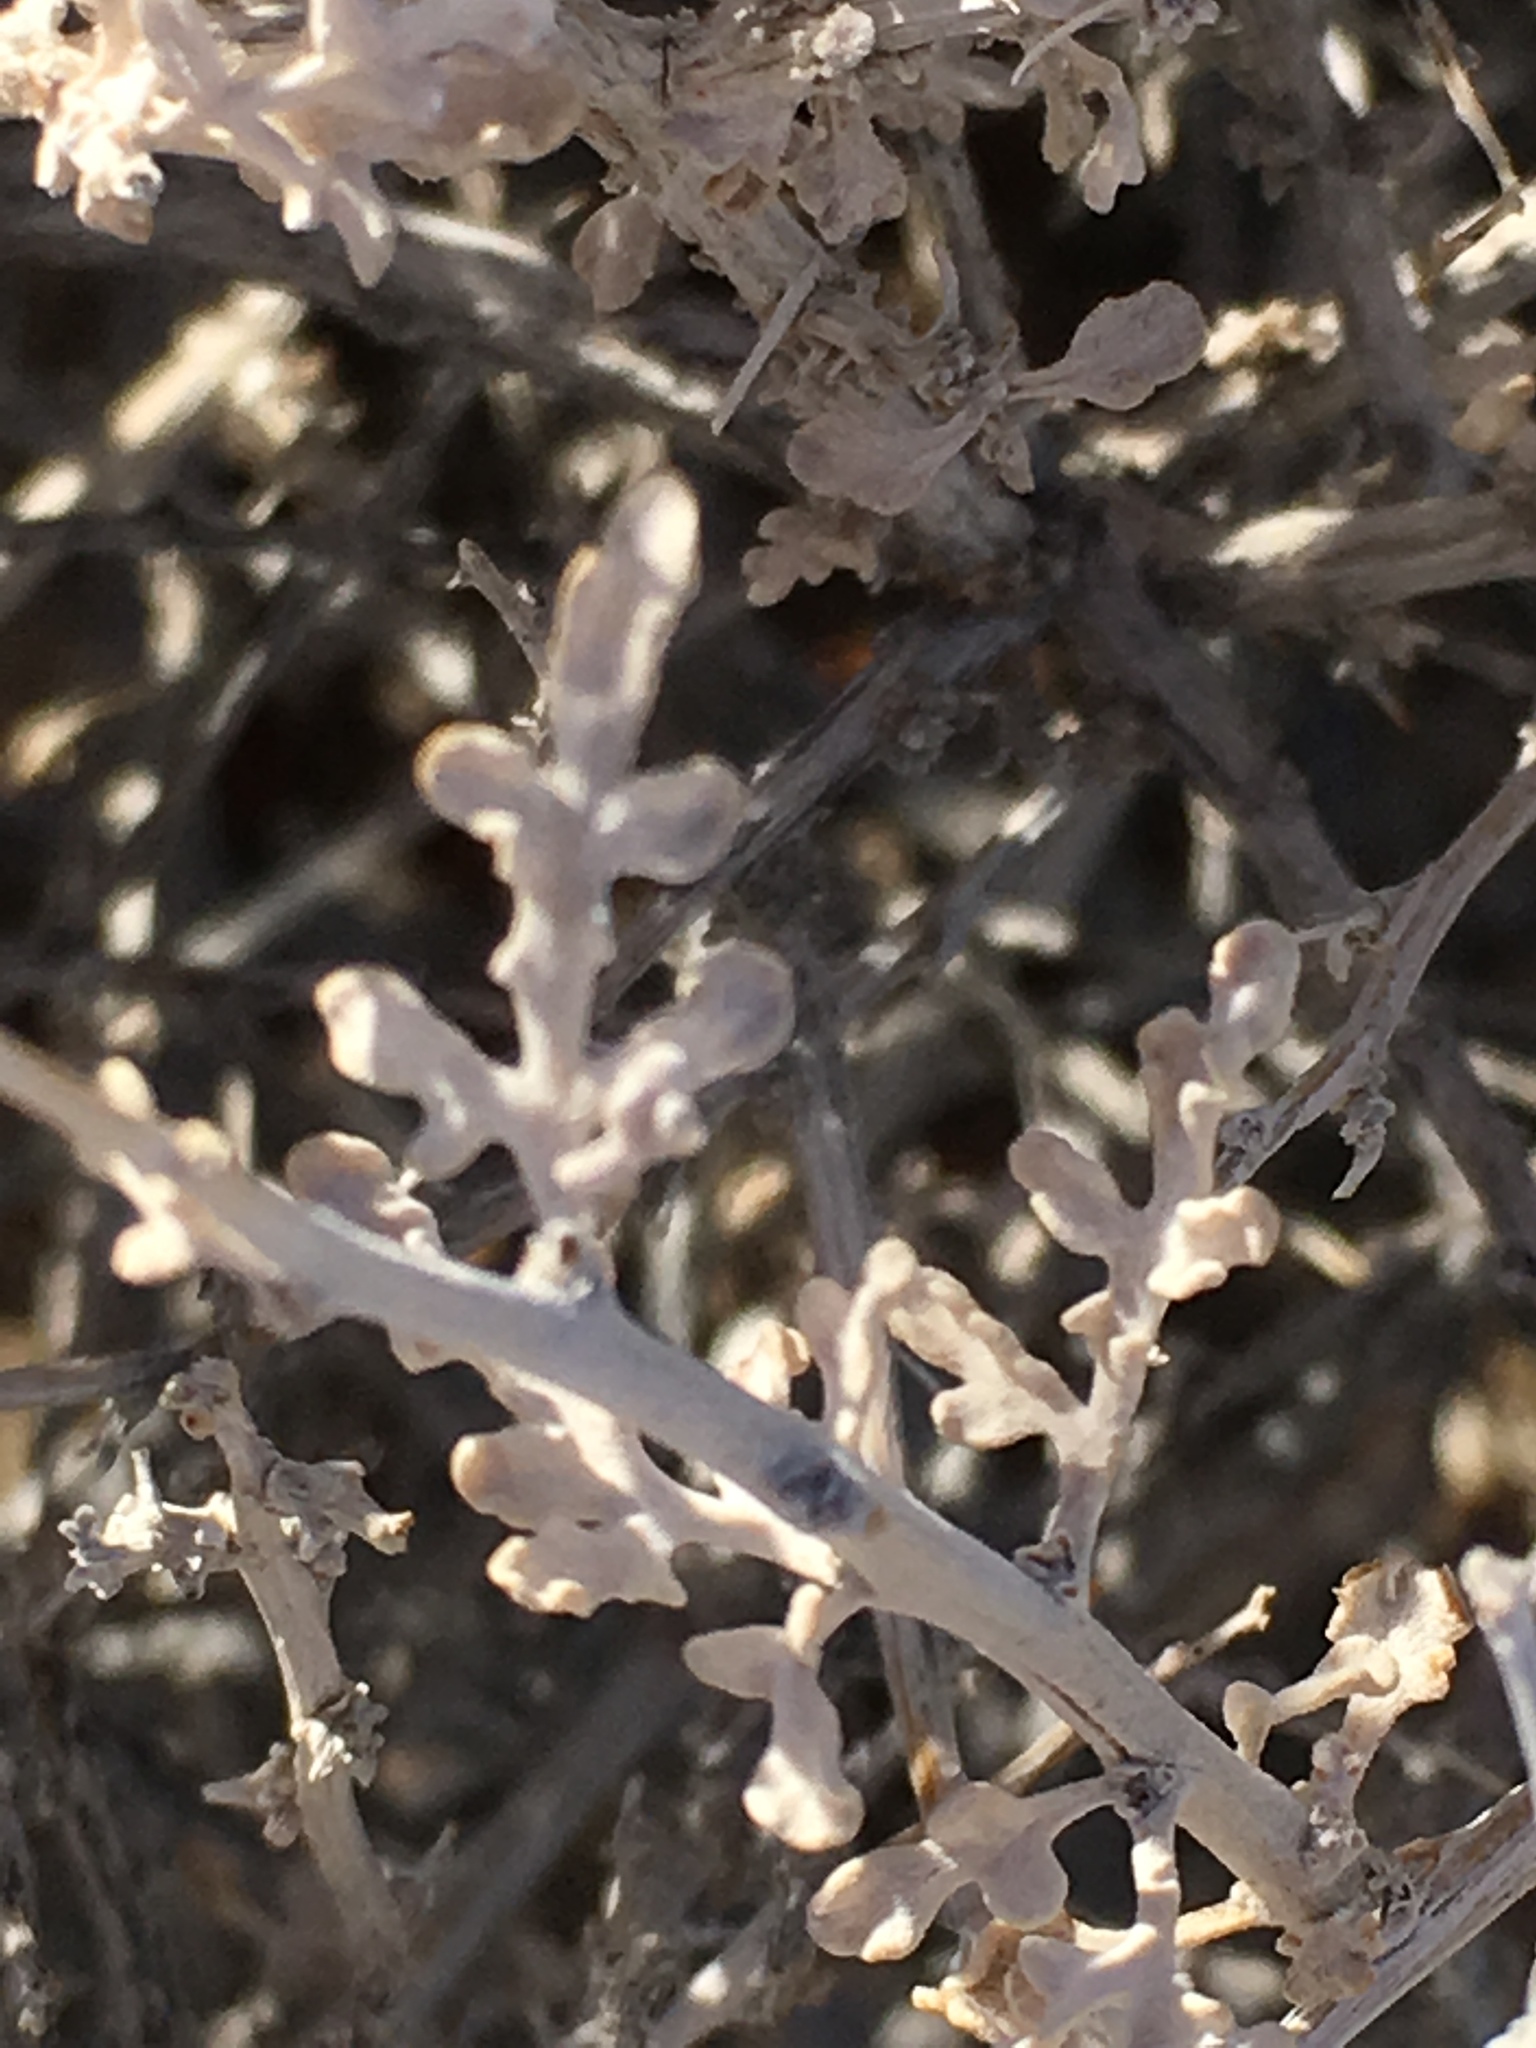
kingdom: Plantae
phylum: Tracheophyta
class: Magnoliopsida
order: Asterales
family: Asteraceae
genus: Ambrosia
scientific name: Ambrosia dumosa
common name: Bur-sage
